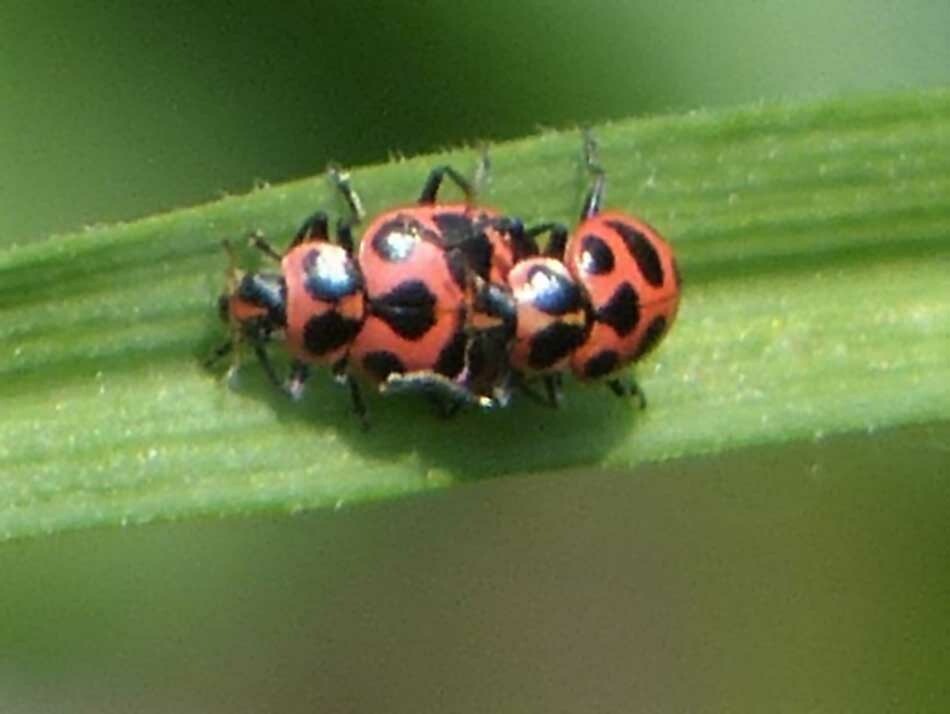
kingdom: Animalia
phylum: Arthropoda
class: Insecta
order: Coleoptera
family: Coccinellidae
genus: Coleomegilla
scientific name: Coleomegilla maculata
